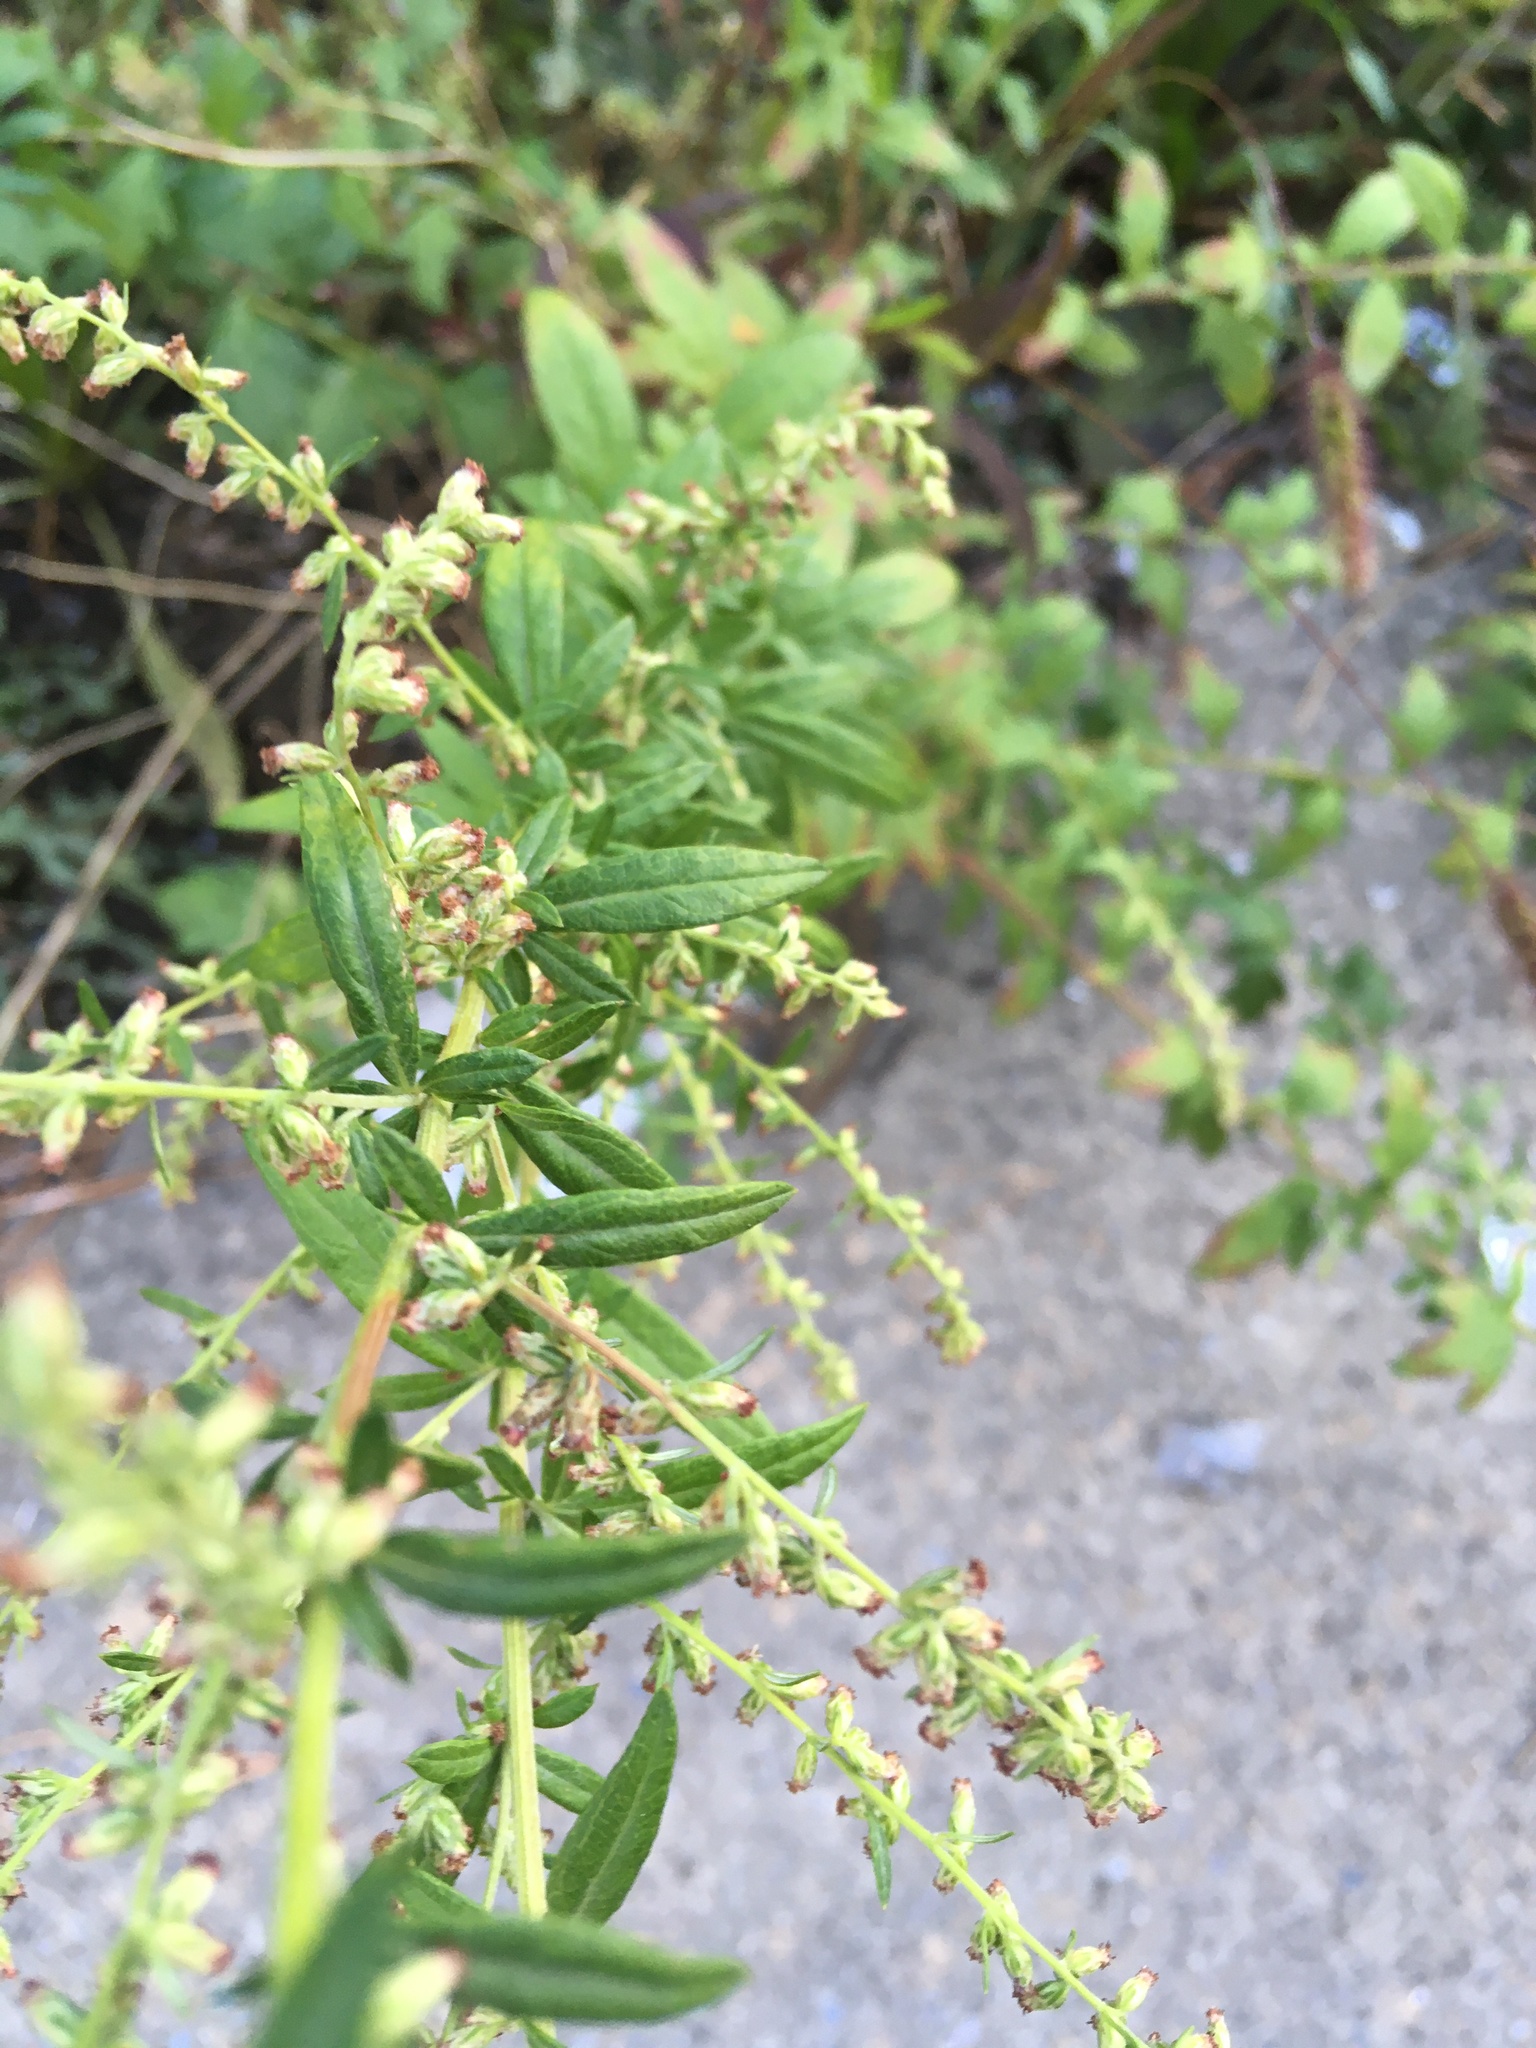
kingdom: Plantae
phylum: Tracheophyta
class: Magnoliopsida
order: Asterales
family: Asteraceae
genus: Artemisia
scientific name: Artemisia vulgaris
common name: Mugwort
